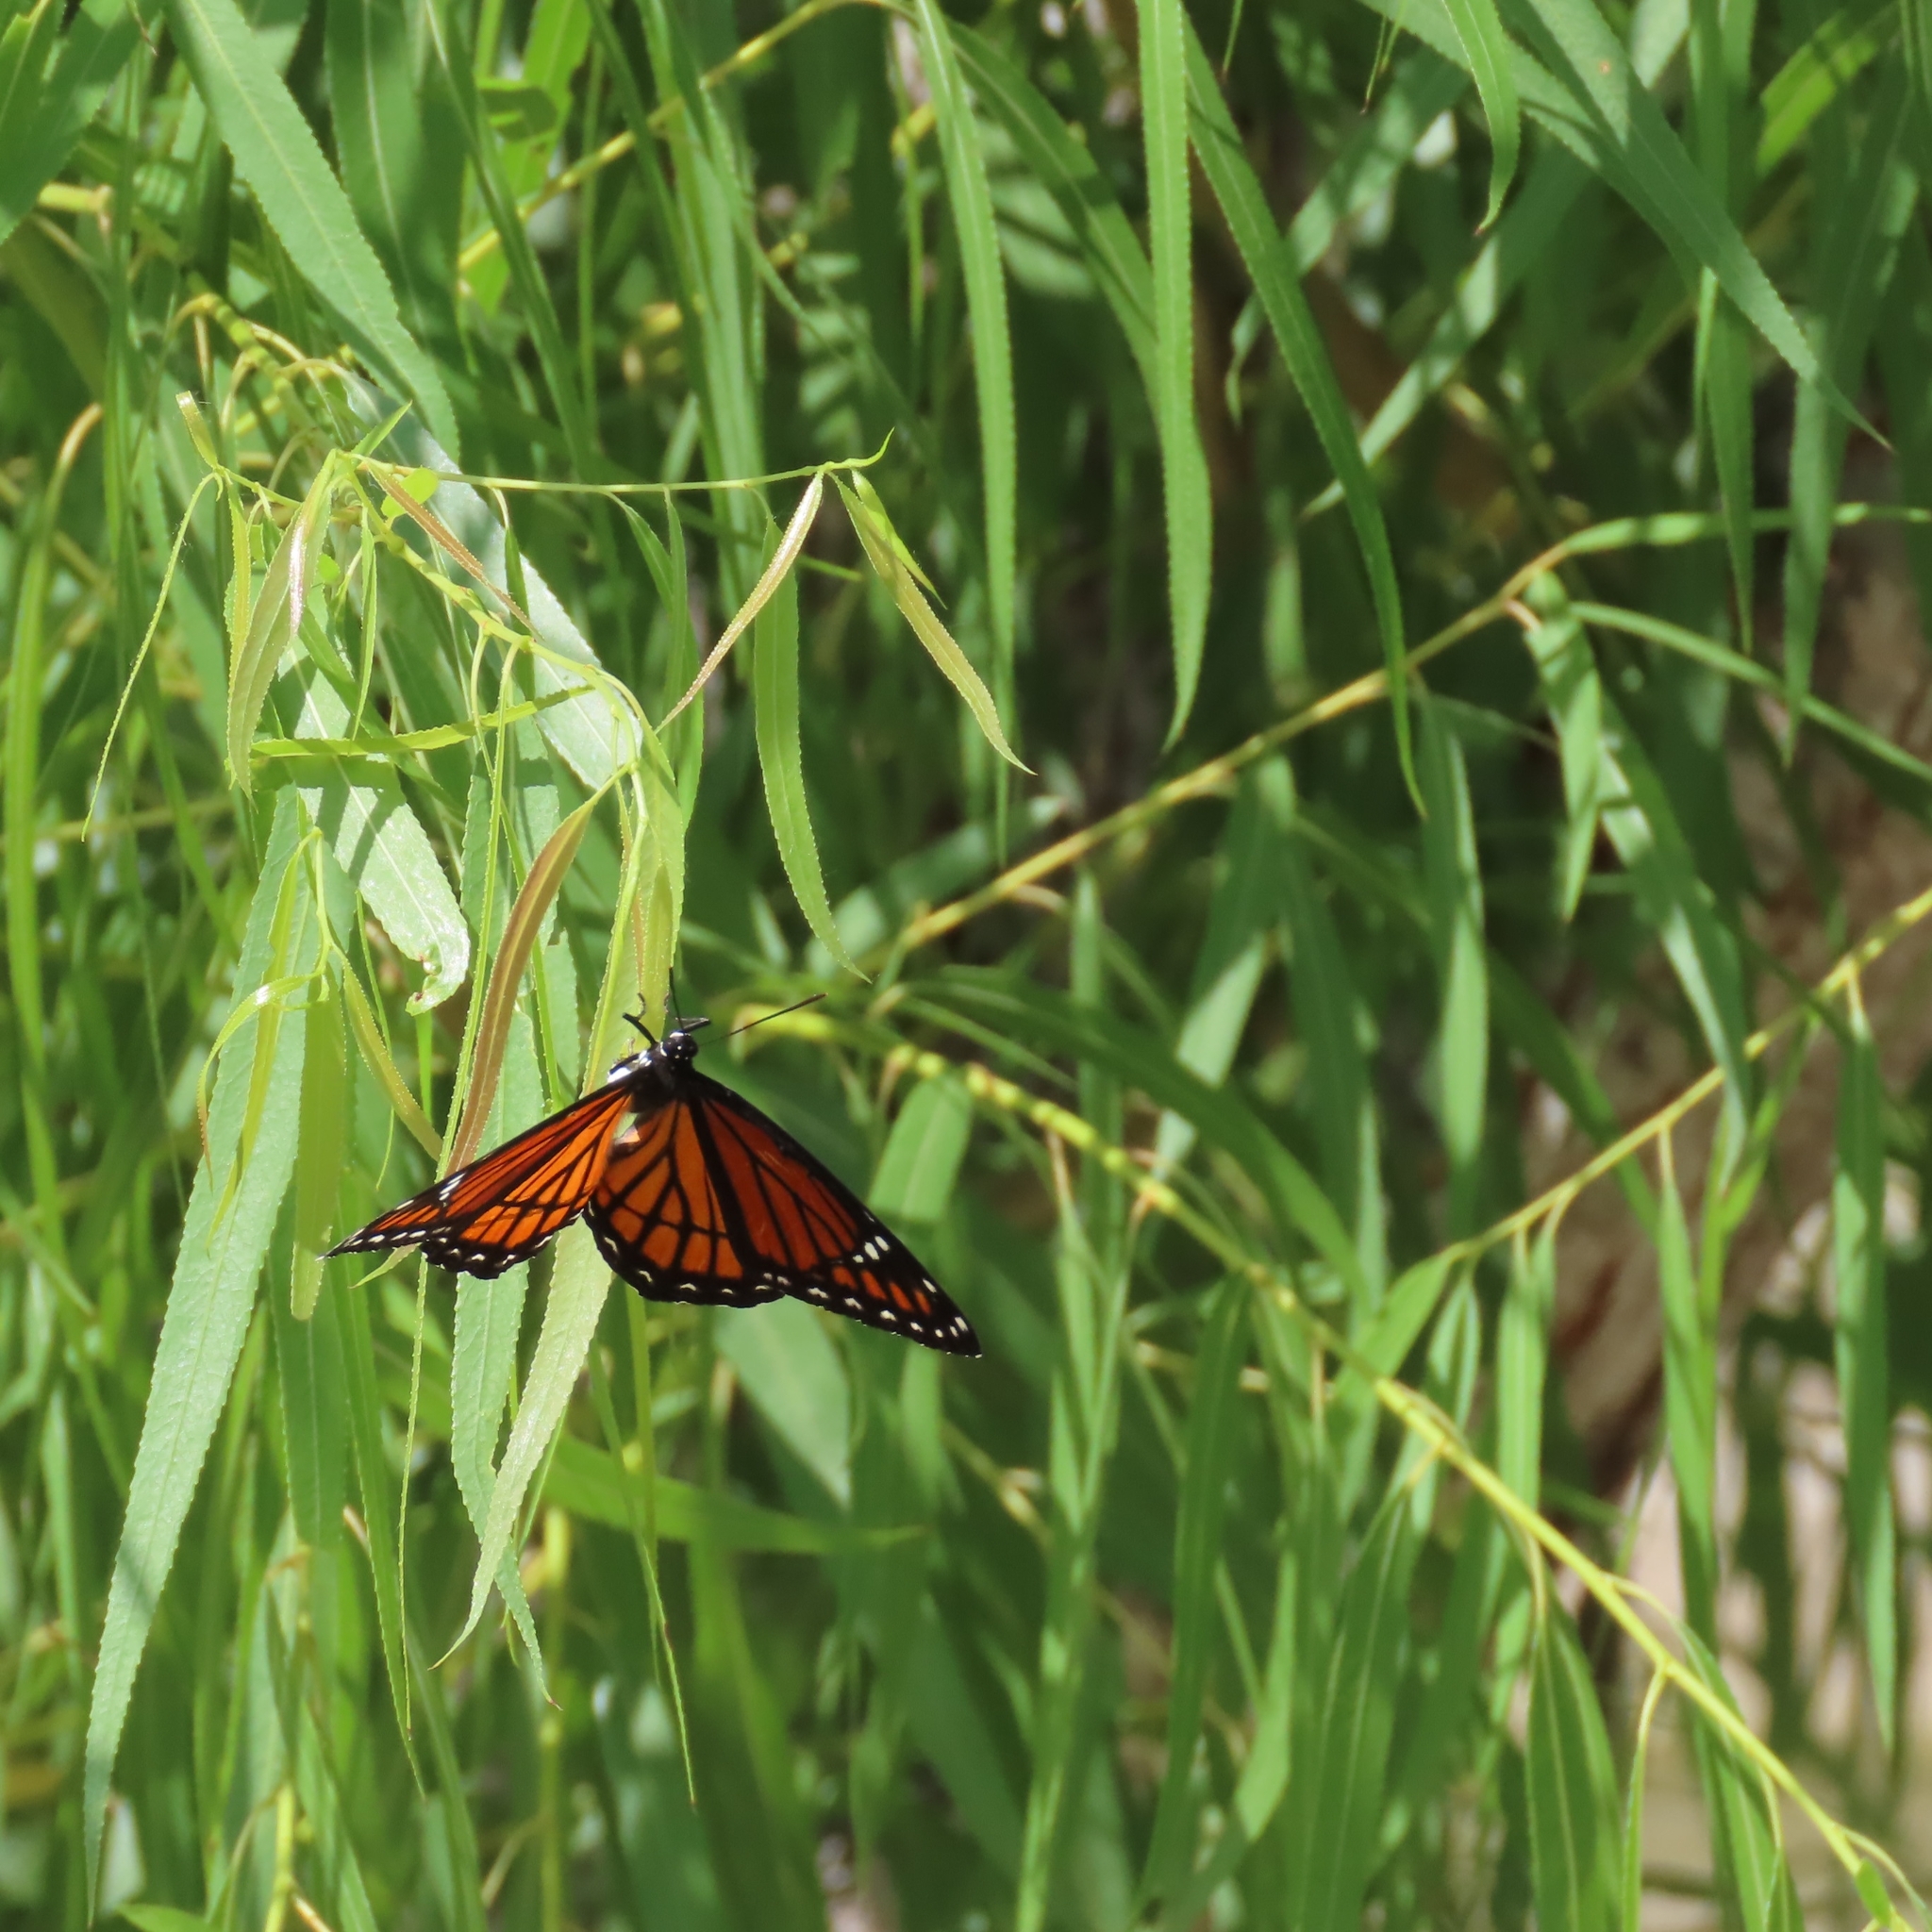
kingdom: Animalia
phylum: Arthropoda
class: Insecta
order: Lepidoptera
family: Nymphalidae
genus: Limenitis
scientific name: Limenitis archippus
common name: Viceroy
